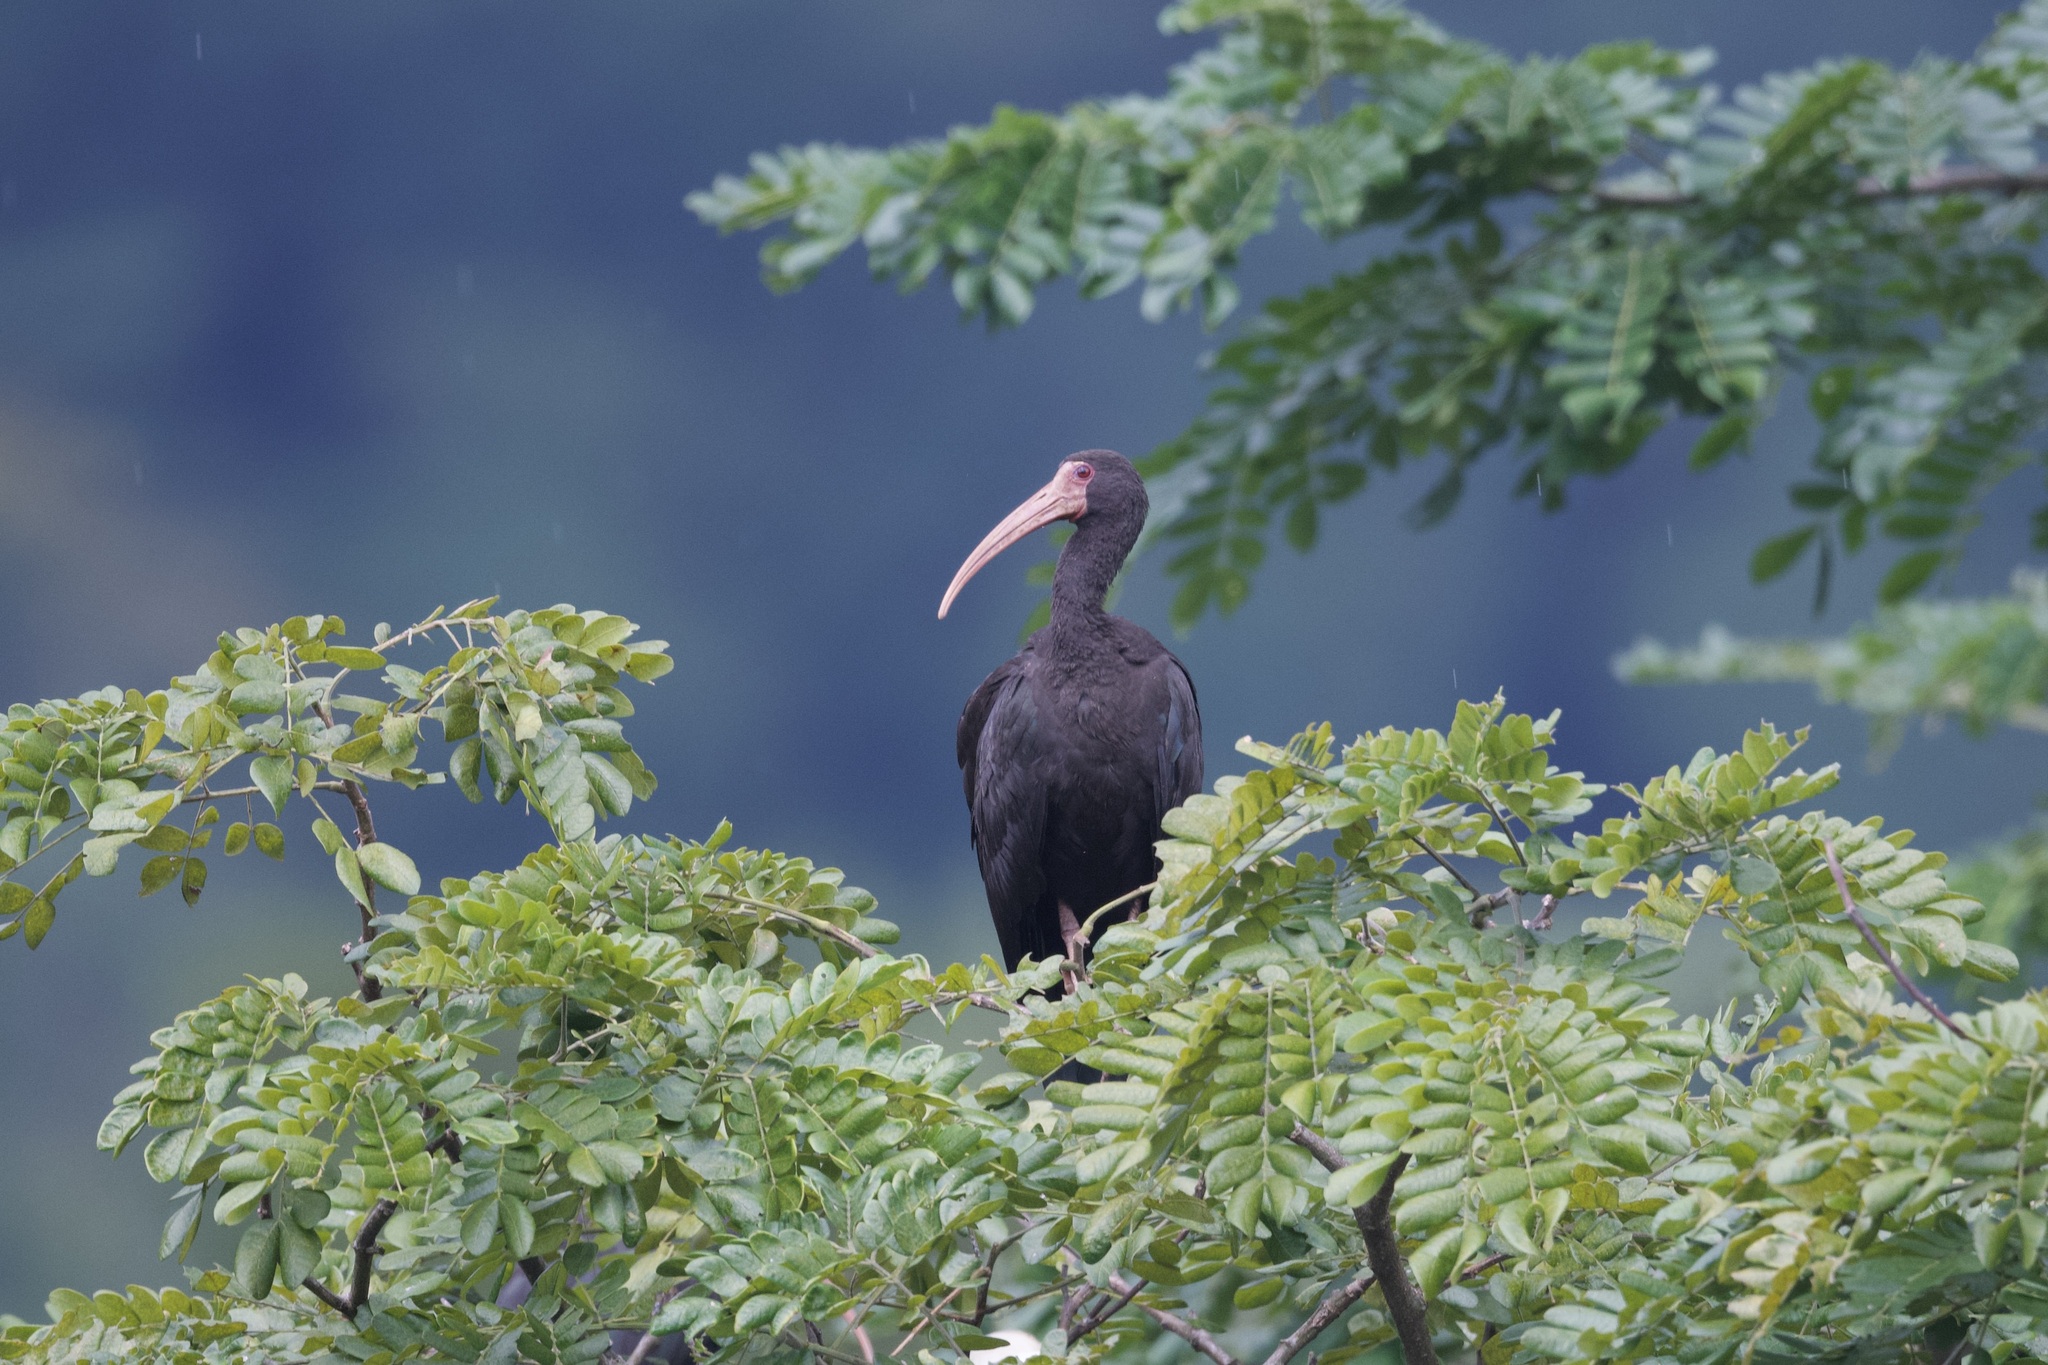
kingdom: Animalia
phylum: Chordata
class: Aves
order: Pelecaniformes
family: Threskiornithidae
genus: Phimosus
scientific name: Phimosus infuscatus
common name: Bare-faced ibis
